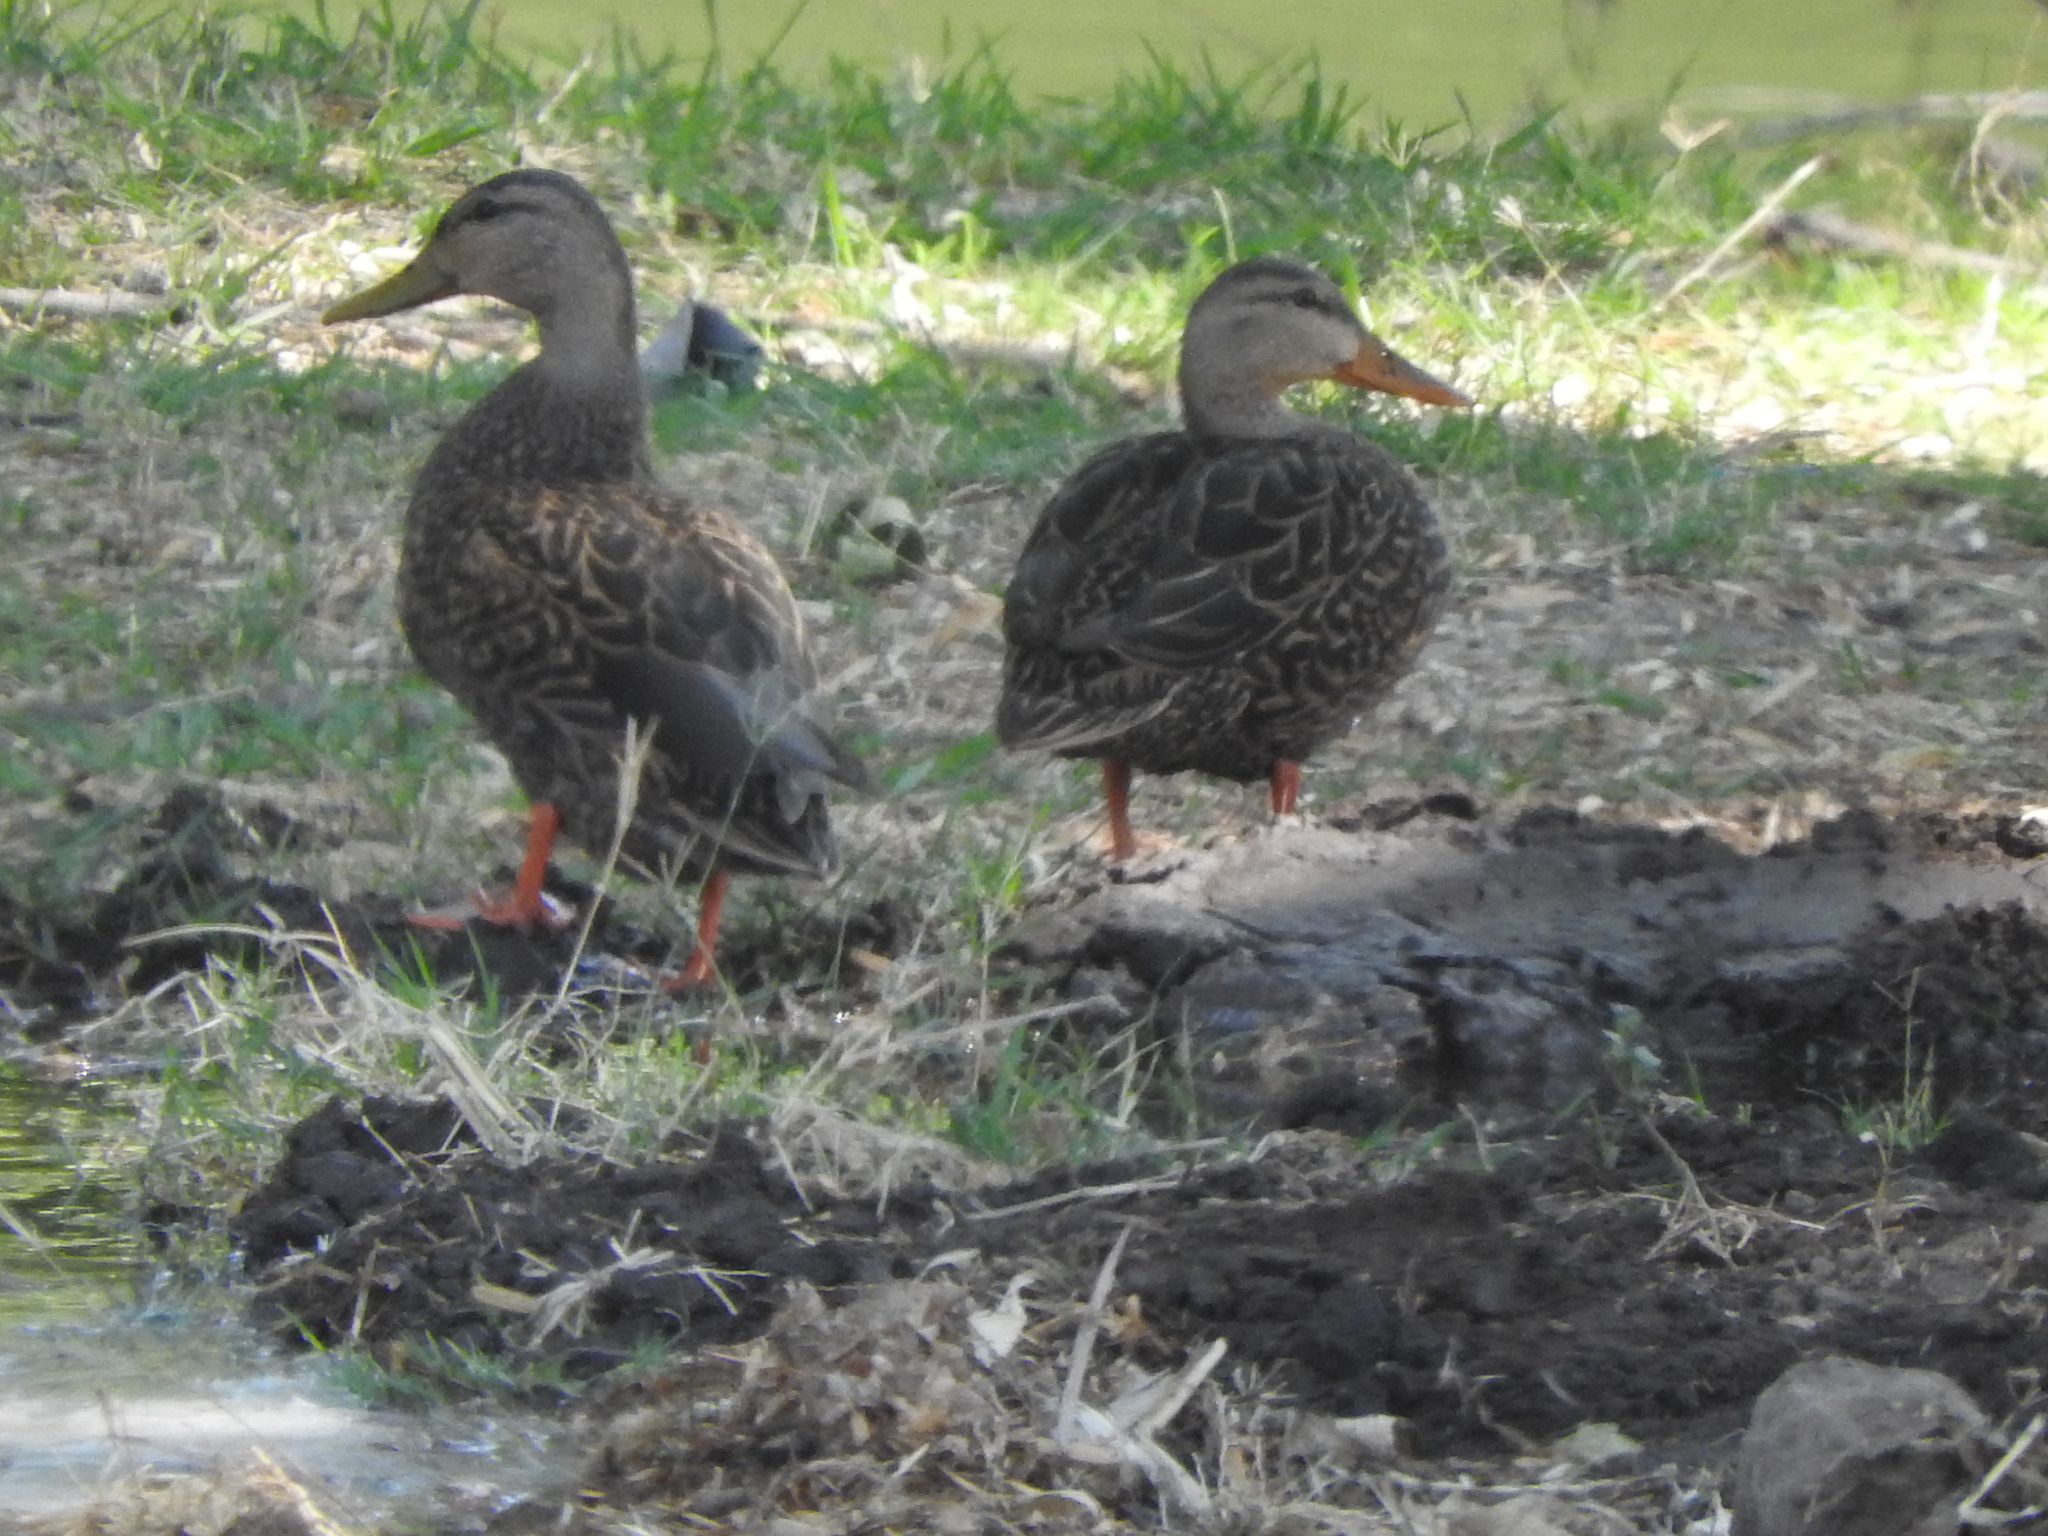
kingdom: Animalia
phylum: Chordata
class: Aves
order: Anseriformes
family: Anatidae
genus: Anas
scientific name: Anas diazi
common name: Mexican duck
